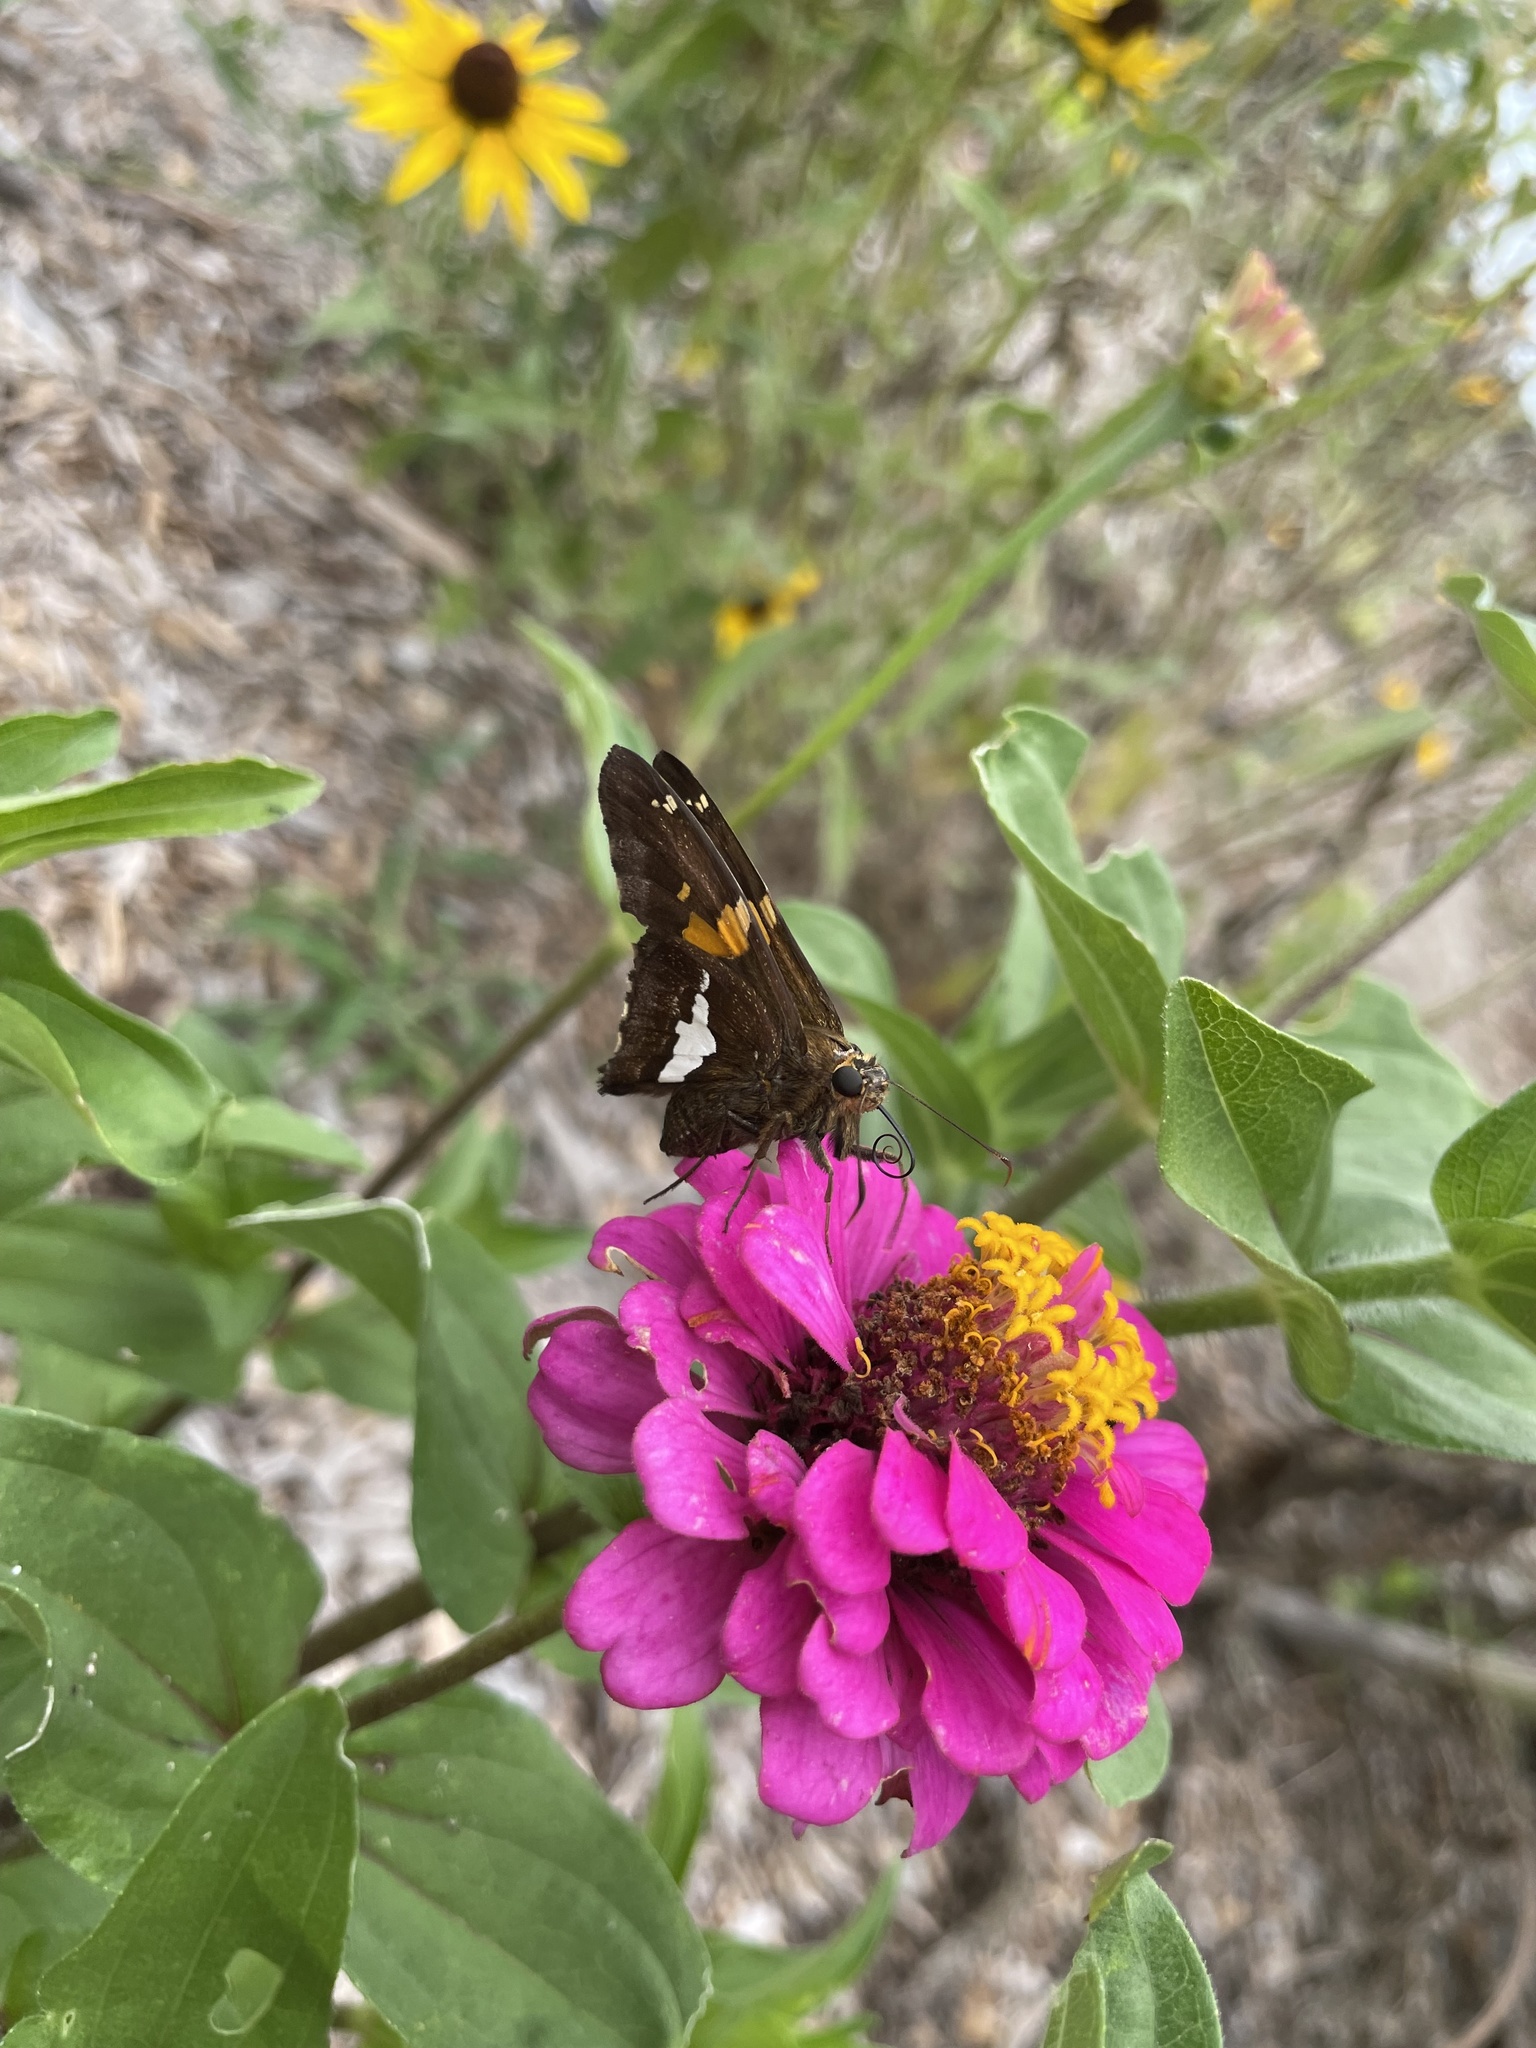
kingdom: Animalia
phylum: Arthropoda
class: Insecta
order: Lepidoptera
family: Hesperiidae
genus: Epargyreus
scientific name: Epargyreus clarus
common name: Silver-spotted skipper
